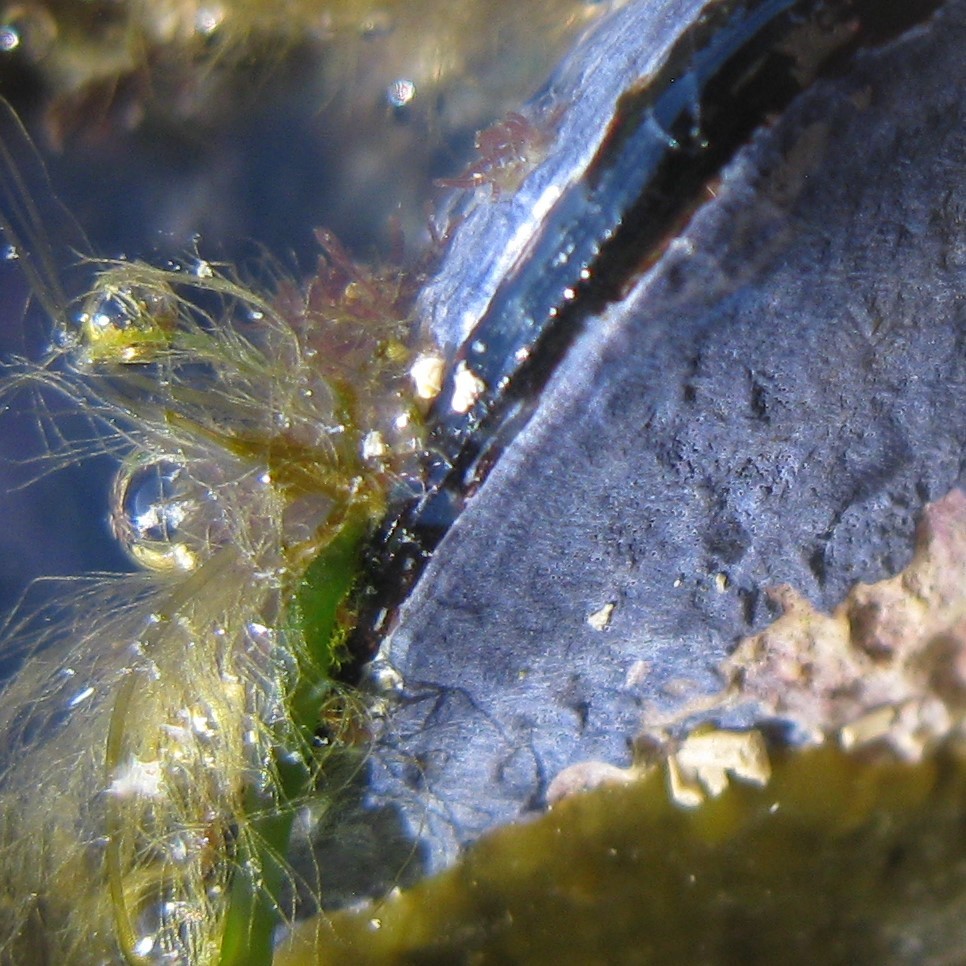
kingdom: Animalia
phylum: Mollusca
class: Bivalvia
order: Mytilida
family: Mytilidae
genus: Mytilus
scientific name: Mytilus planulatus
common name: Australian mussel
